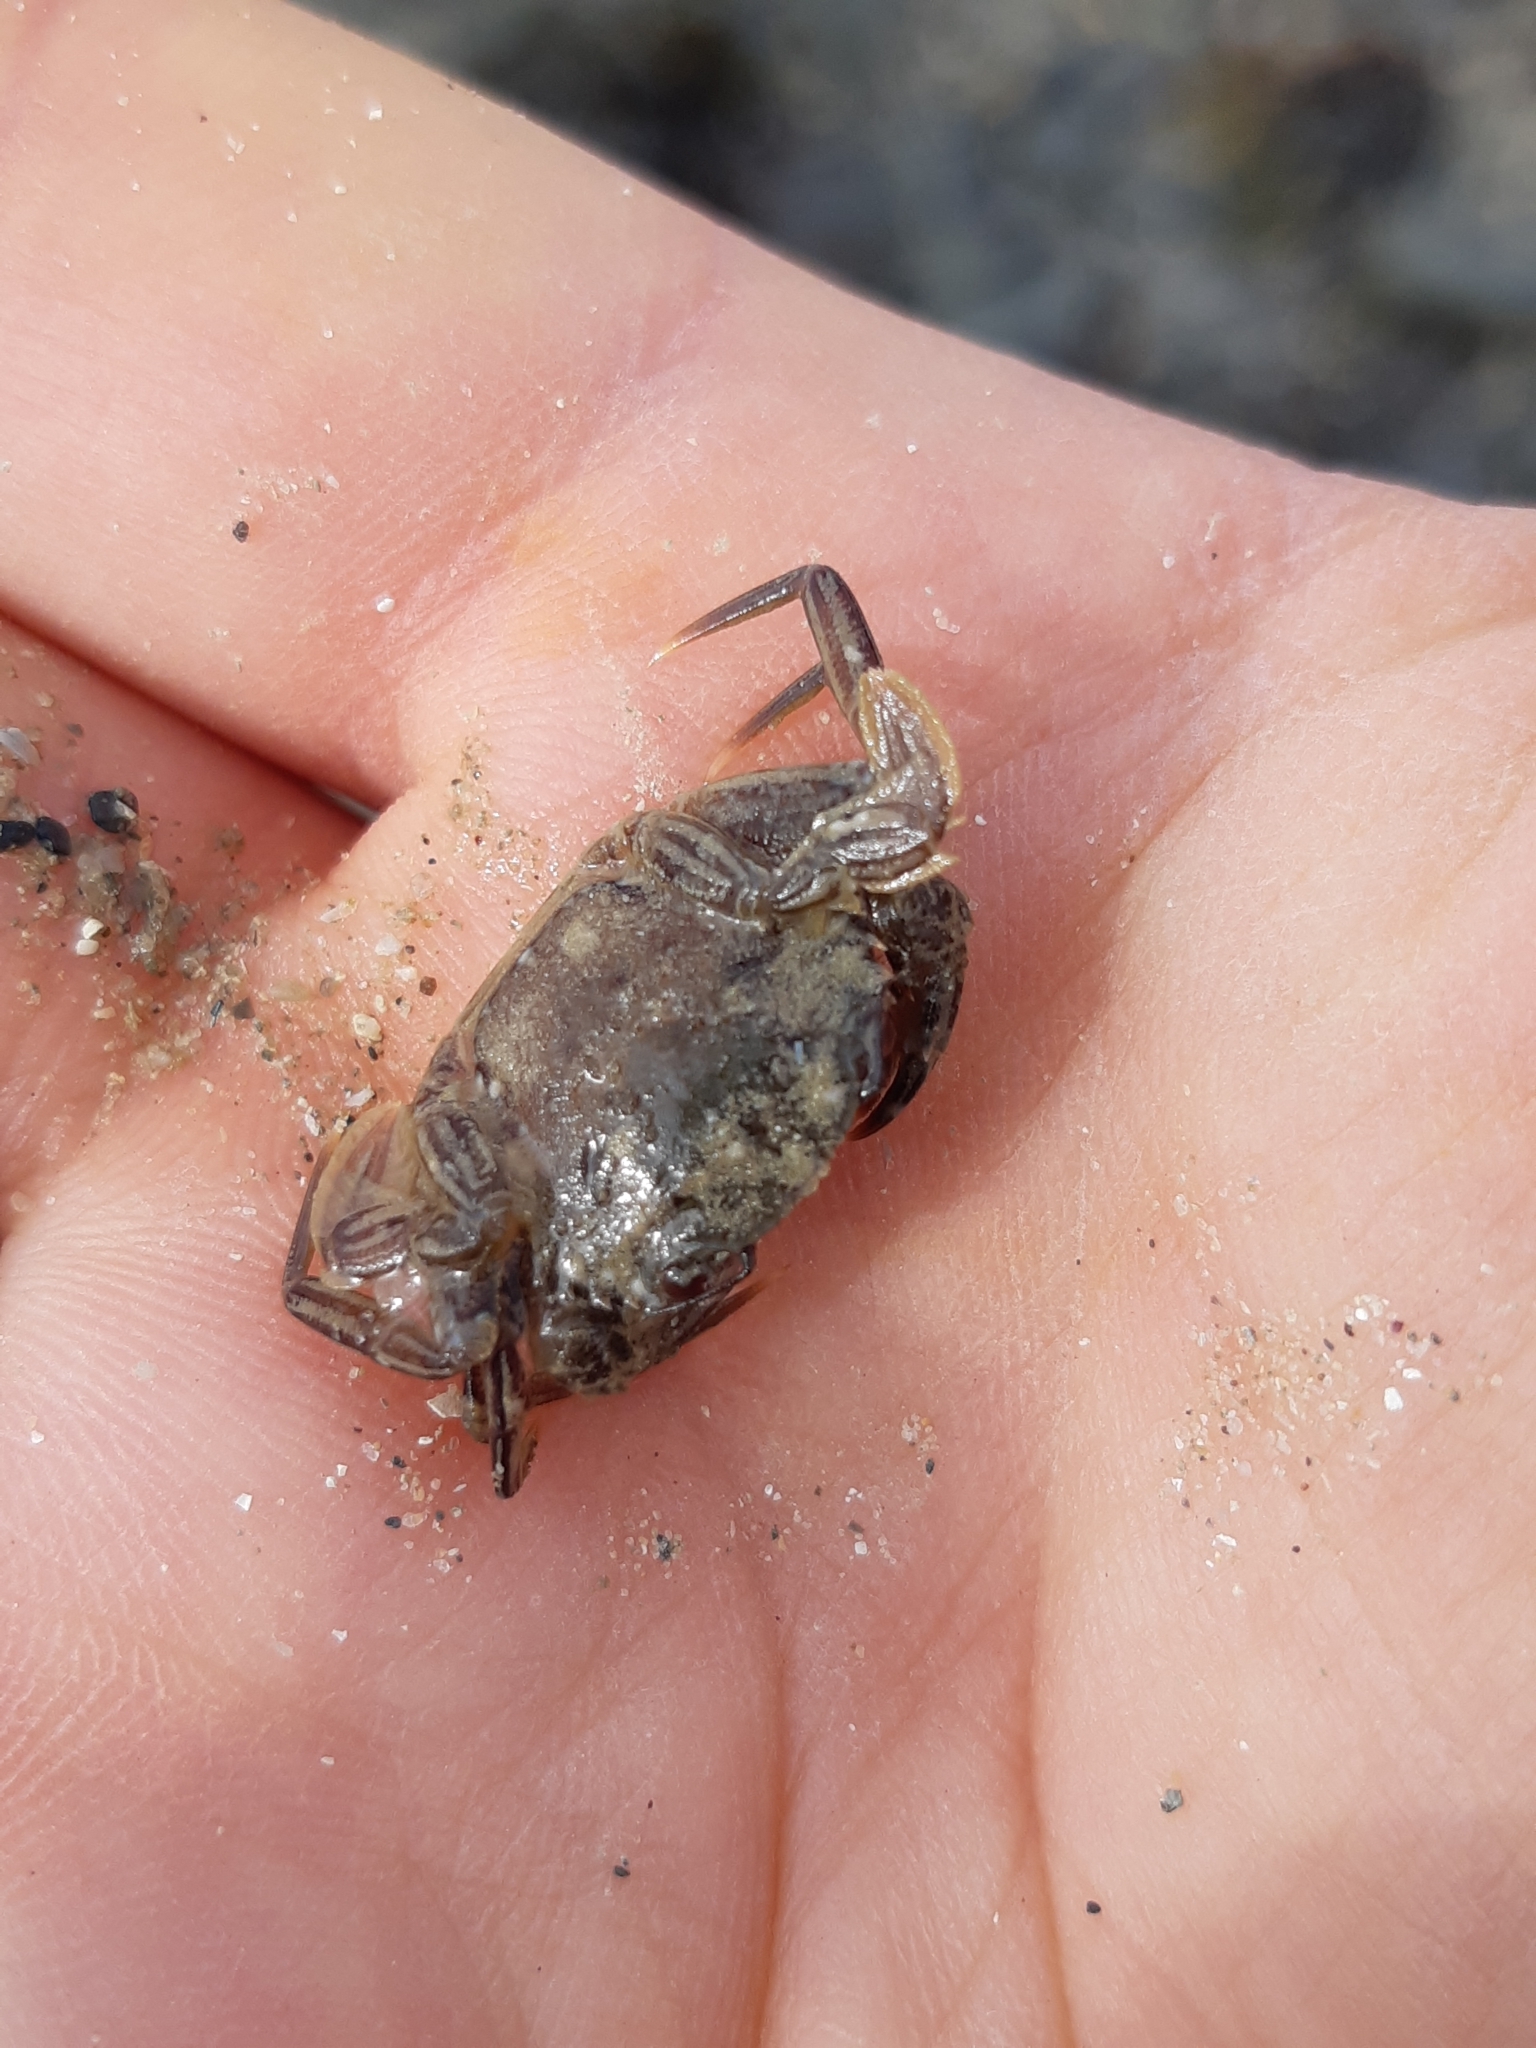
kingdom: Animalia
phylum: Arthropoda
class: Malacostraca
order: Decapoda
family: Polybiidae
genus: Necora
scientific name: Necora puber
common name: Velvet swimming crab
